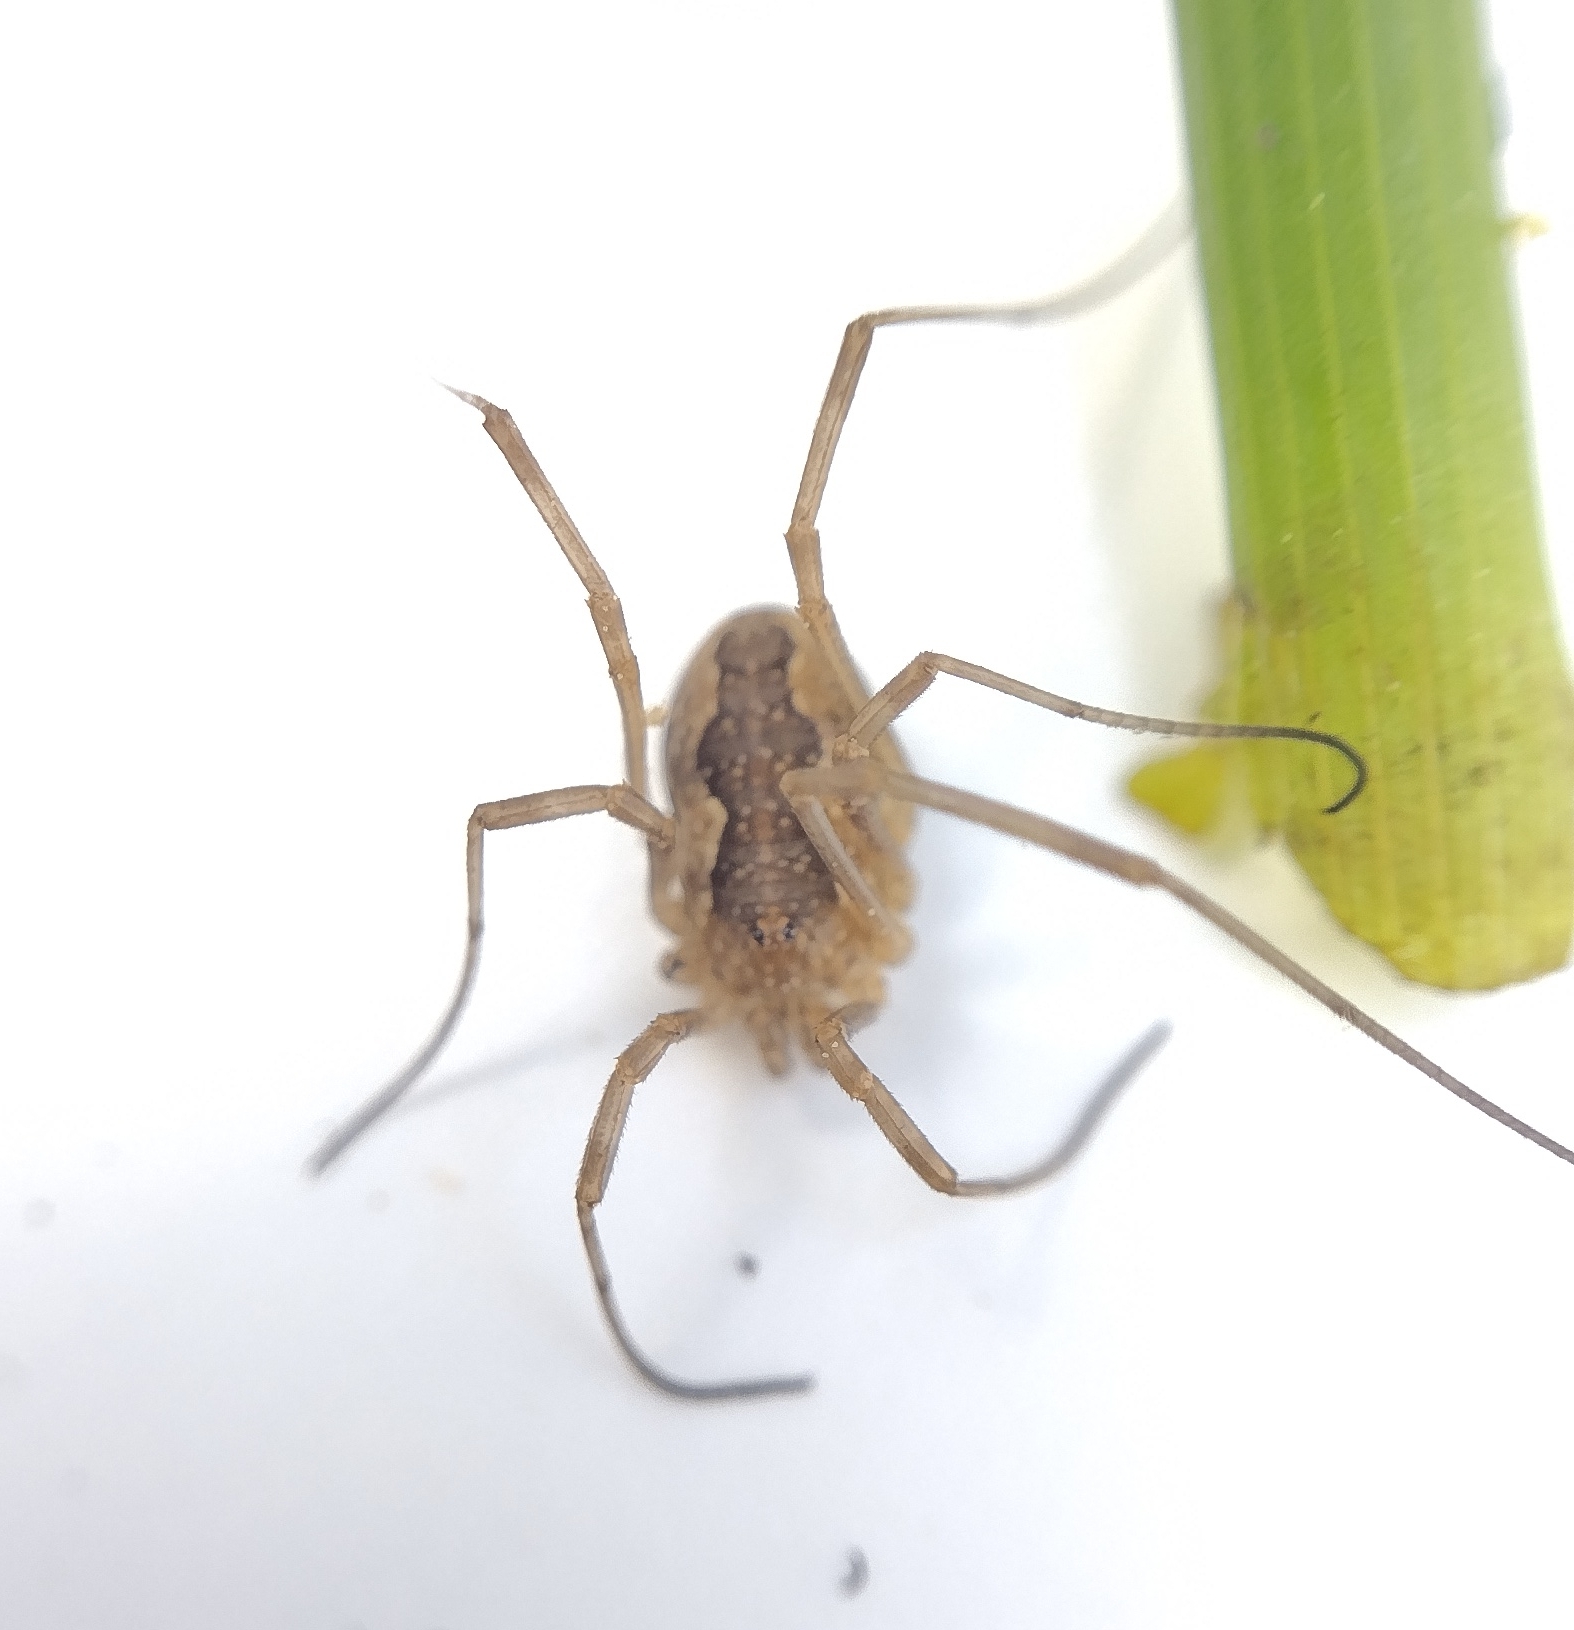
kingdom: Animalia
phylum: Arthropoda
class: Arachnida
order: Opiliones
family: Phalangiidae
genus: Mitopus
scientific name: Mitopus morio
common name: Saddleback harvestman
